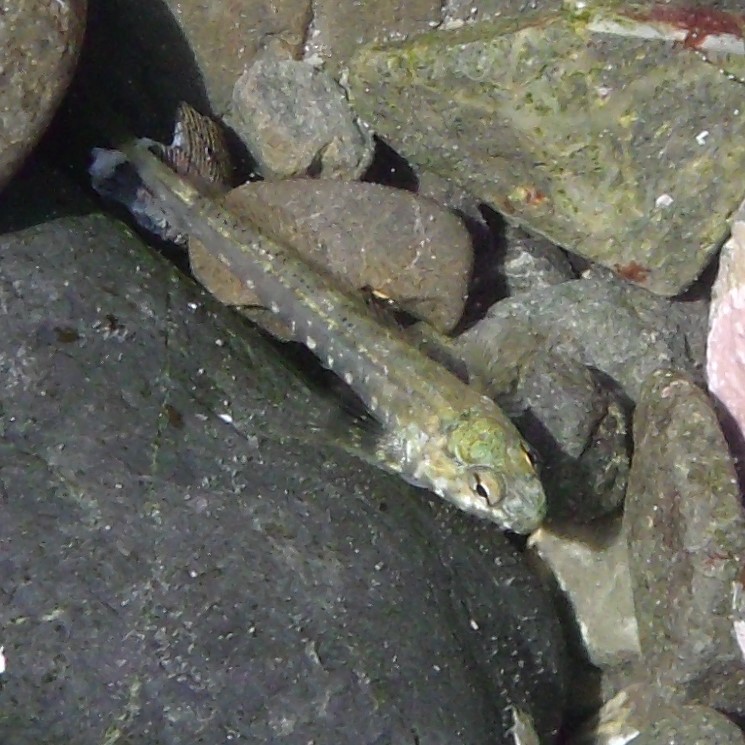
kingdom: Animalia
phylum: Chordata
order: Perciformes
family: Tripterygiidae
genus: Bellapiscis
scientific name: Bellapiscis medius
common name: Twister
